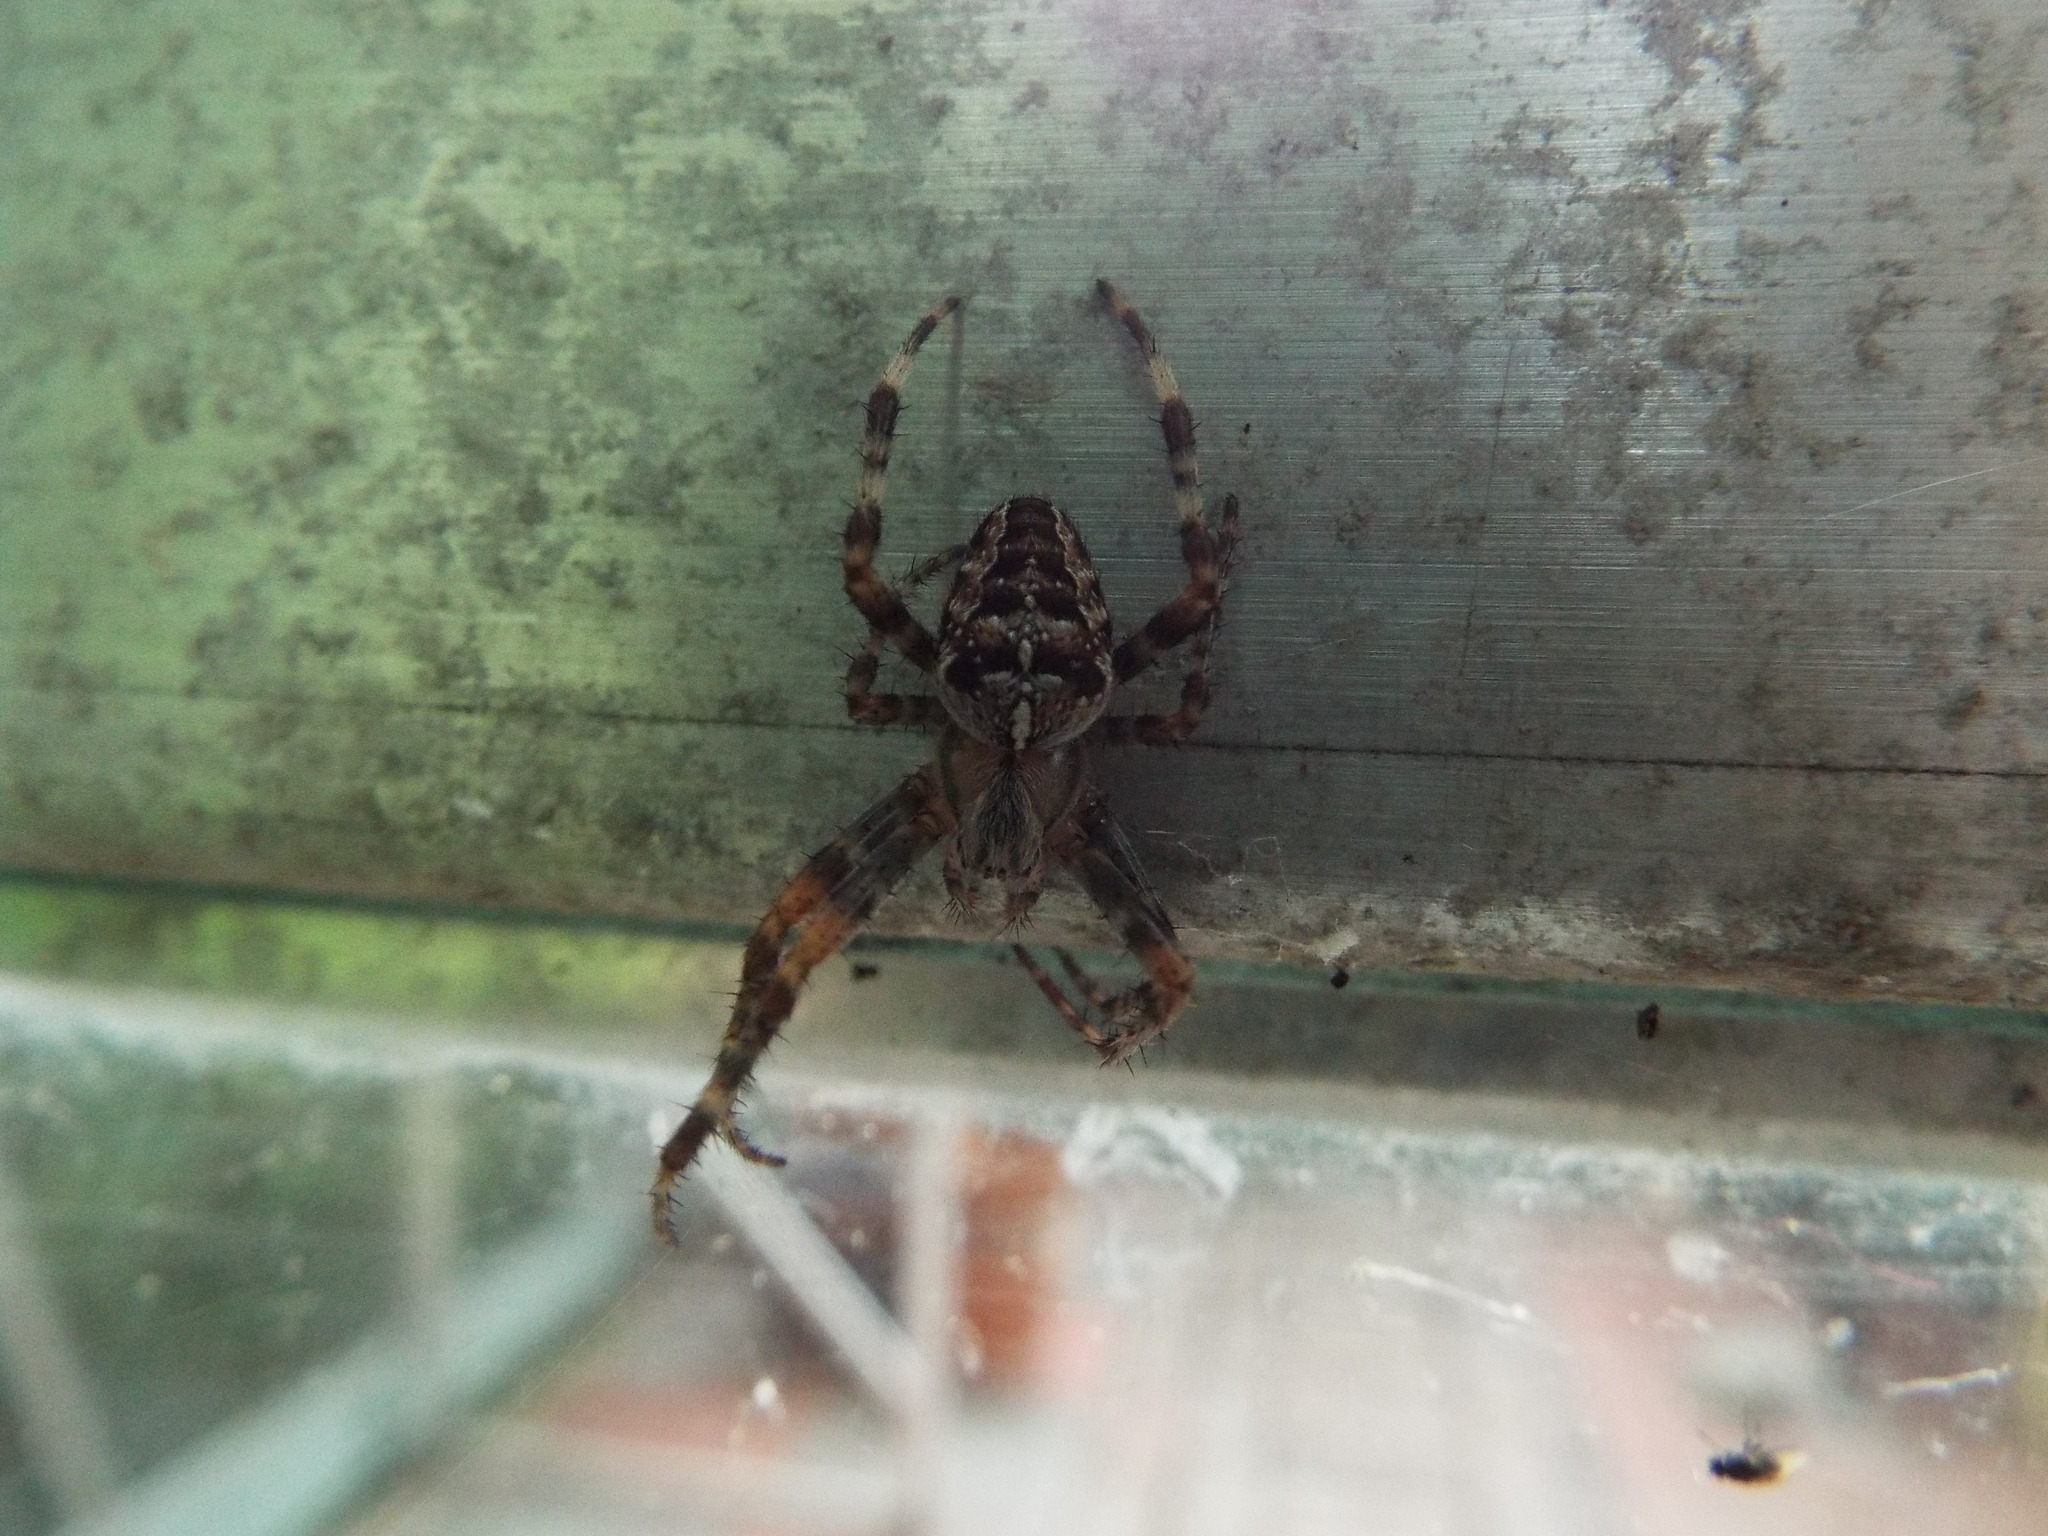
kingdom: Animalia
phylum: Arthropoda
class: Arachnida
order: Araneae
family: Araneidae
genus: Araneus
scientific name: Araneus diadematus
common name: Cross orbweaver
